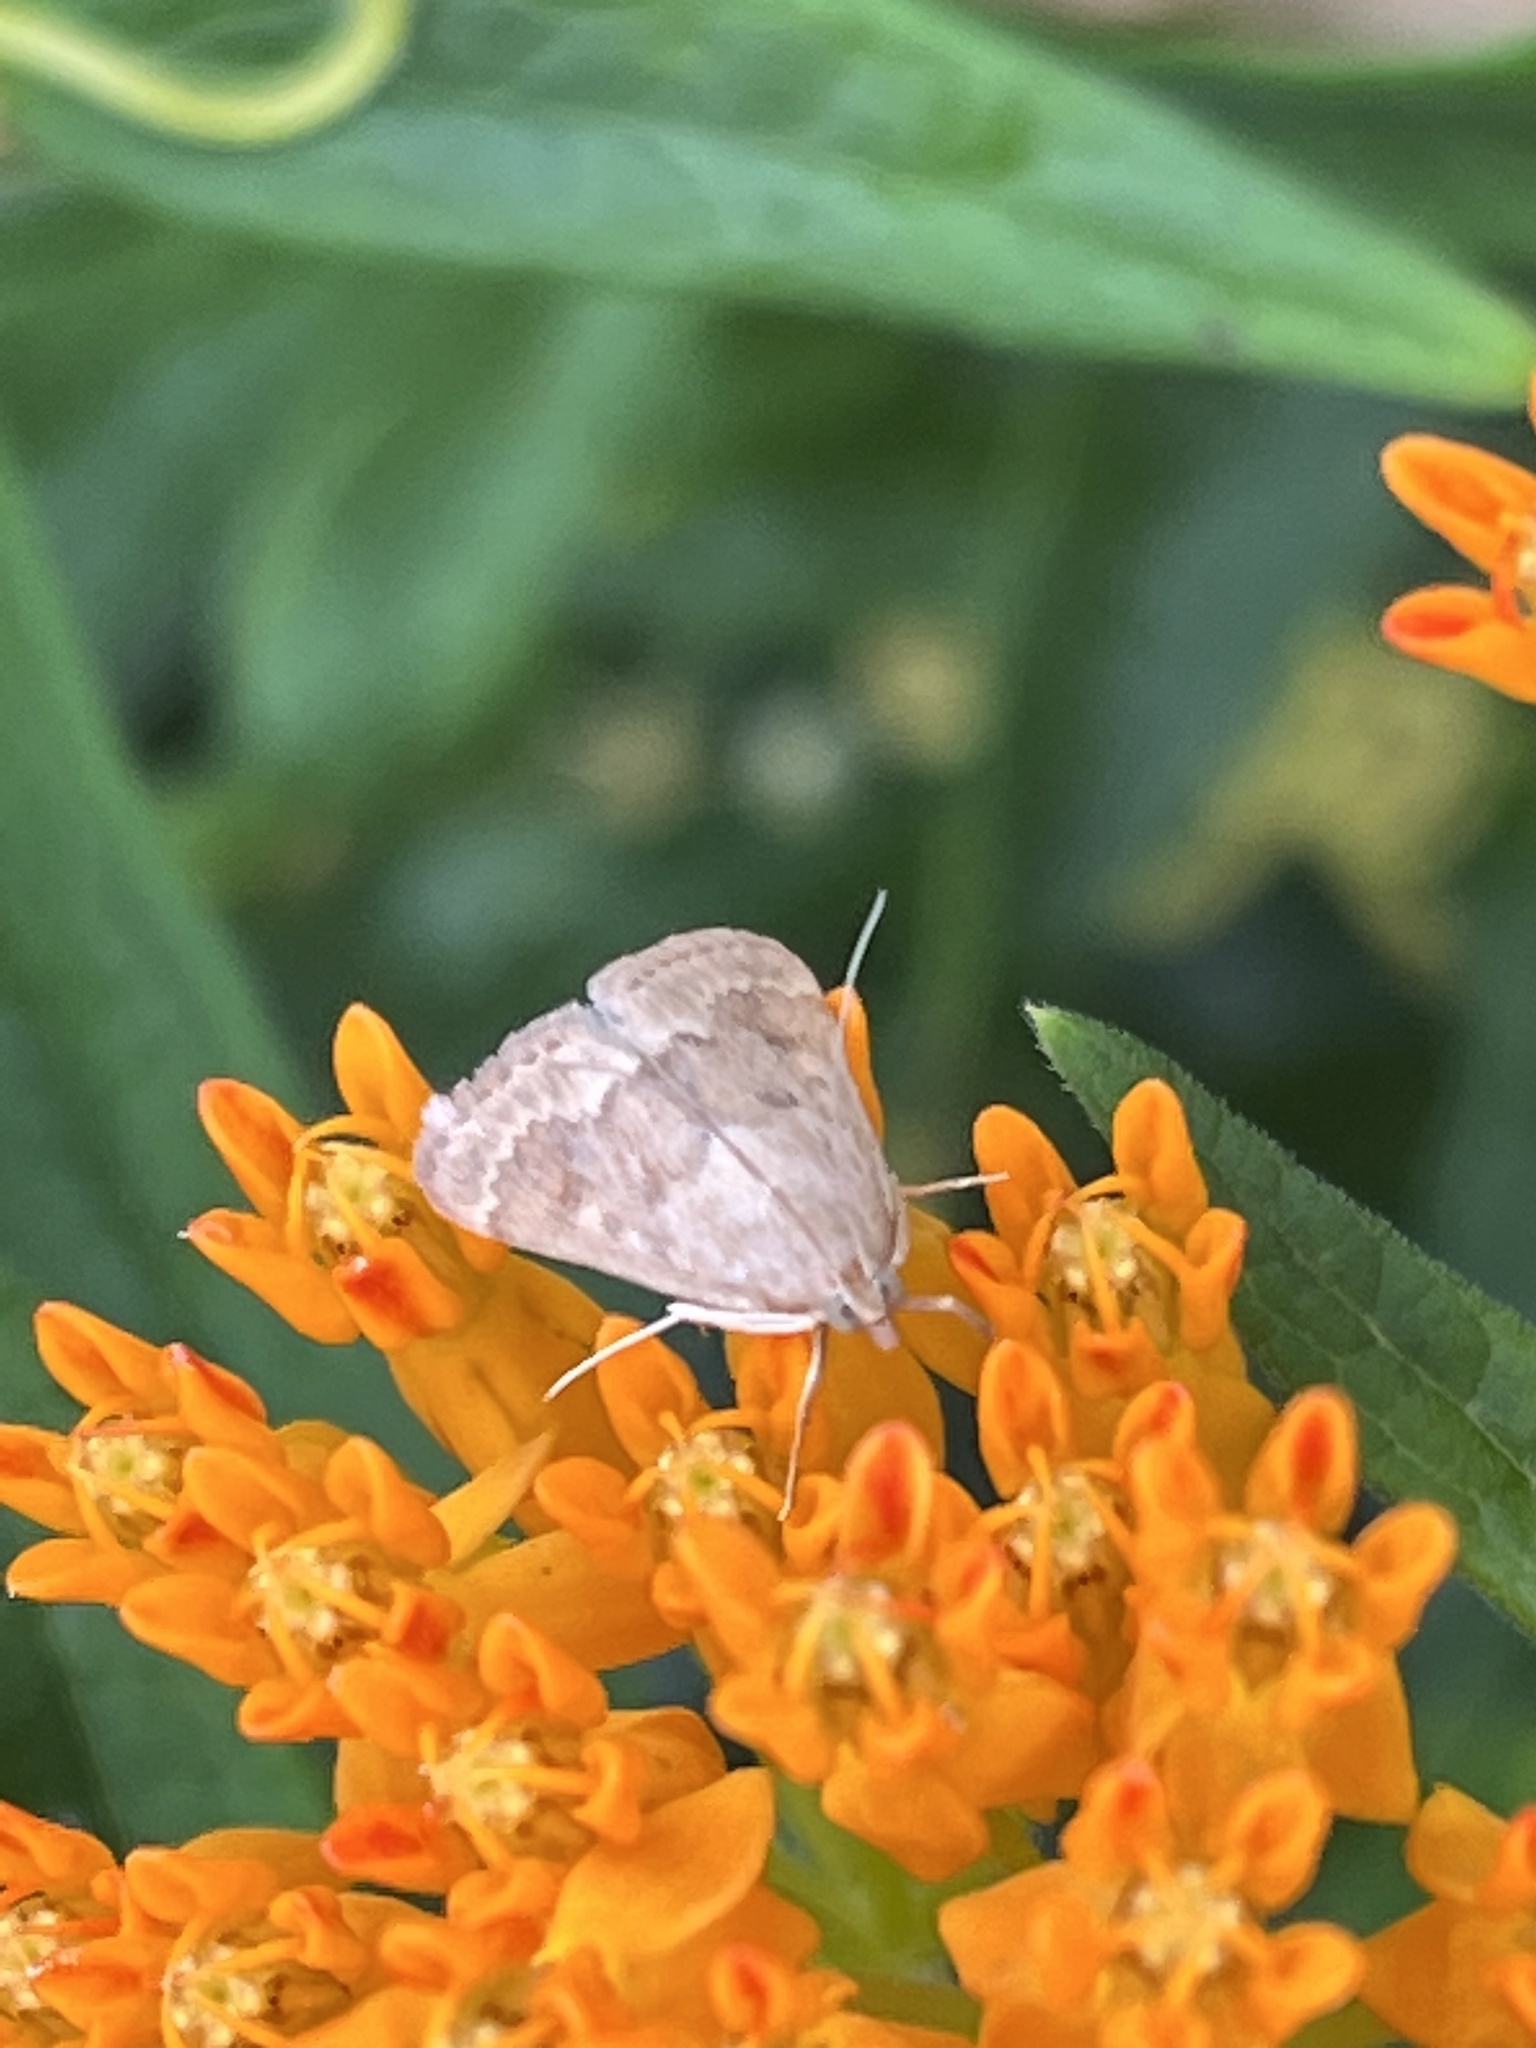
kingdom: Animalia
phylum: Arthropoda
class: Insecta
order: Lepidoptera
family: Crambidae
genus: Achyra
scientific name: Achyra rantalis
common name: Garden webworm
